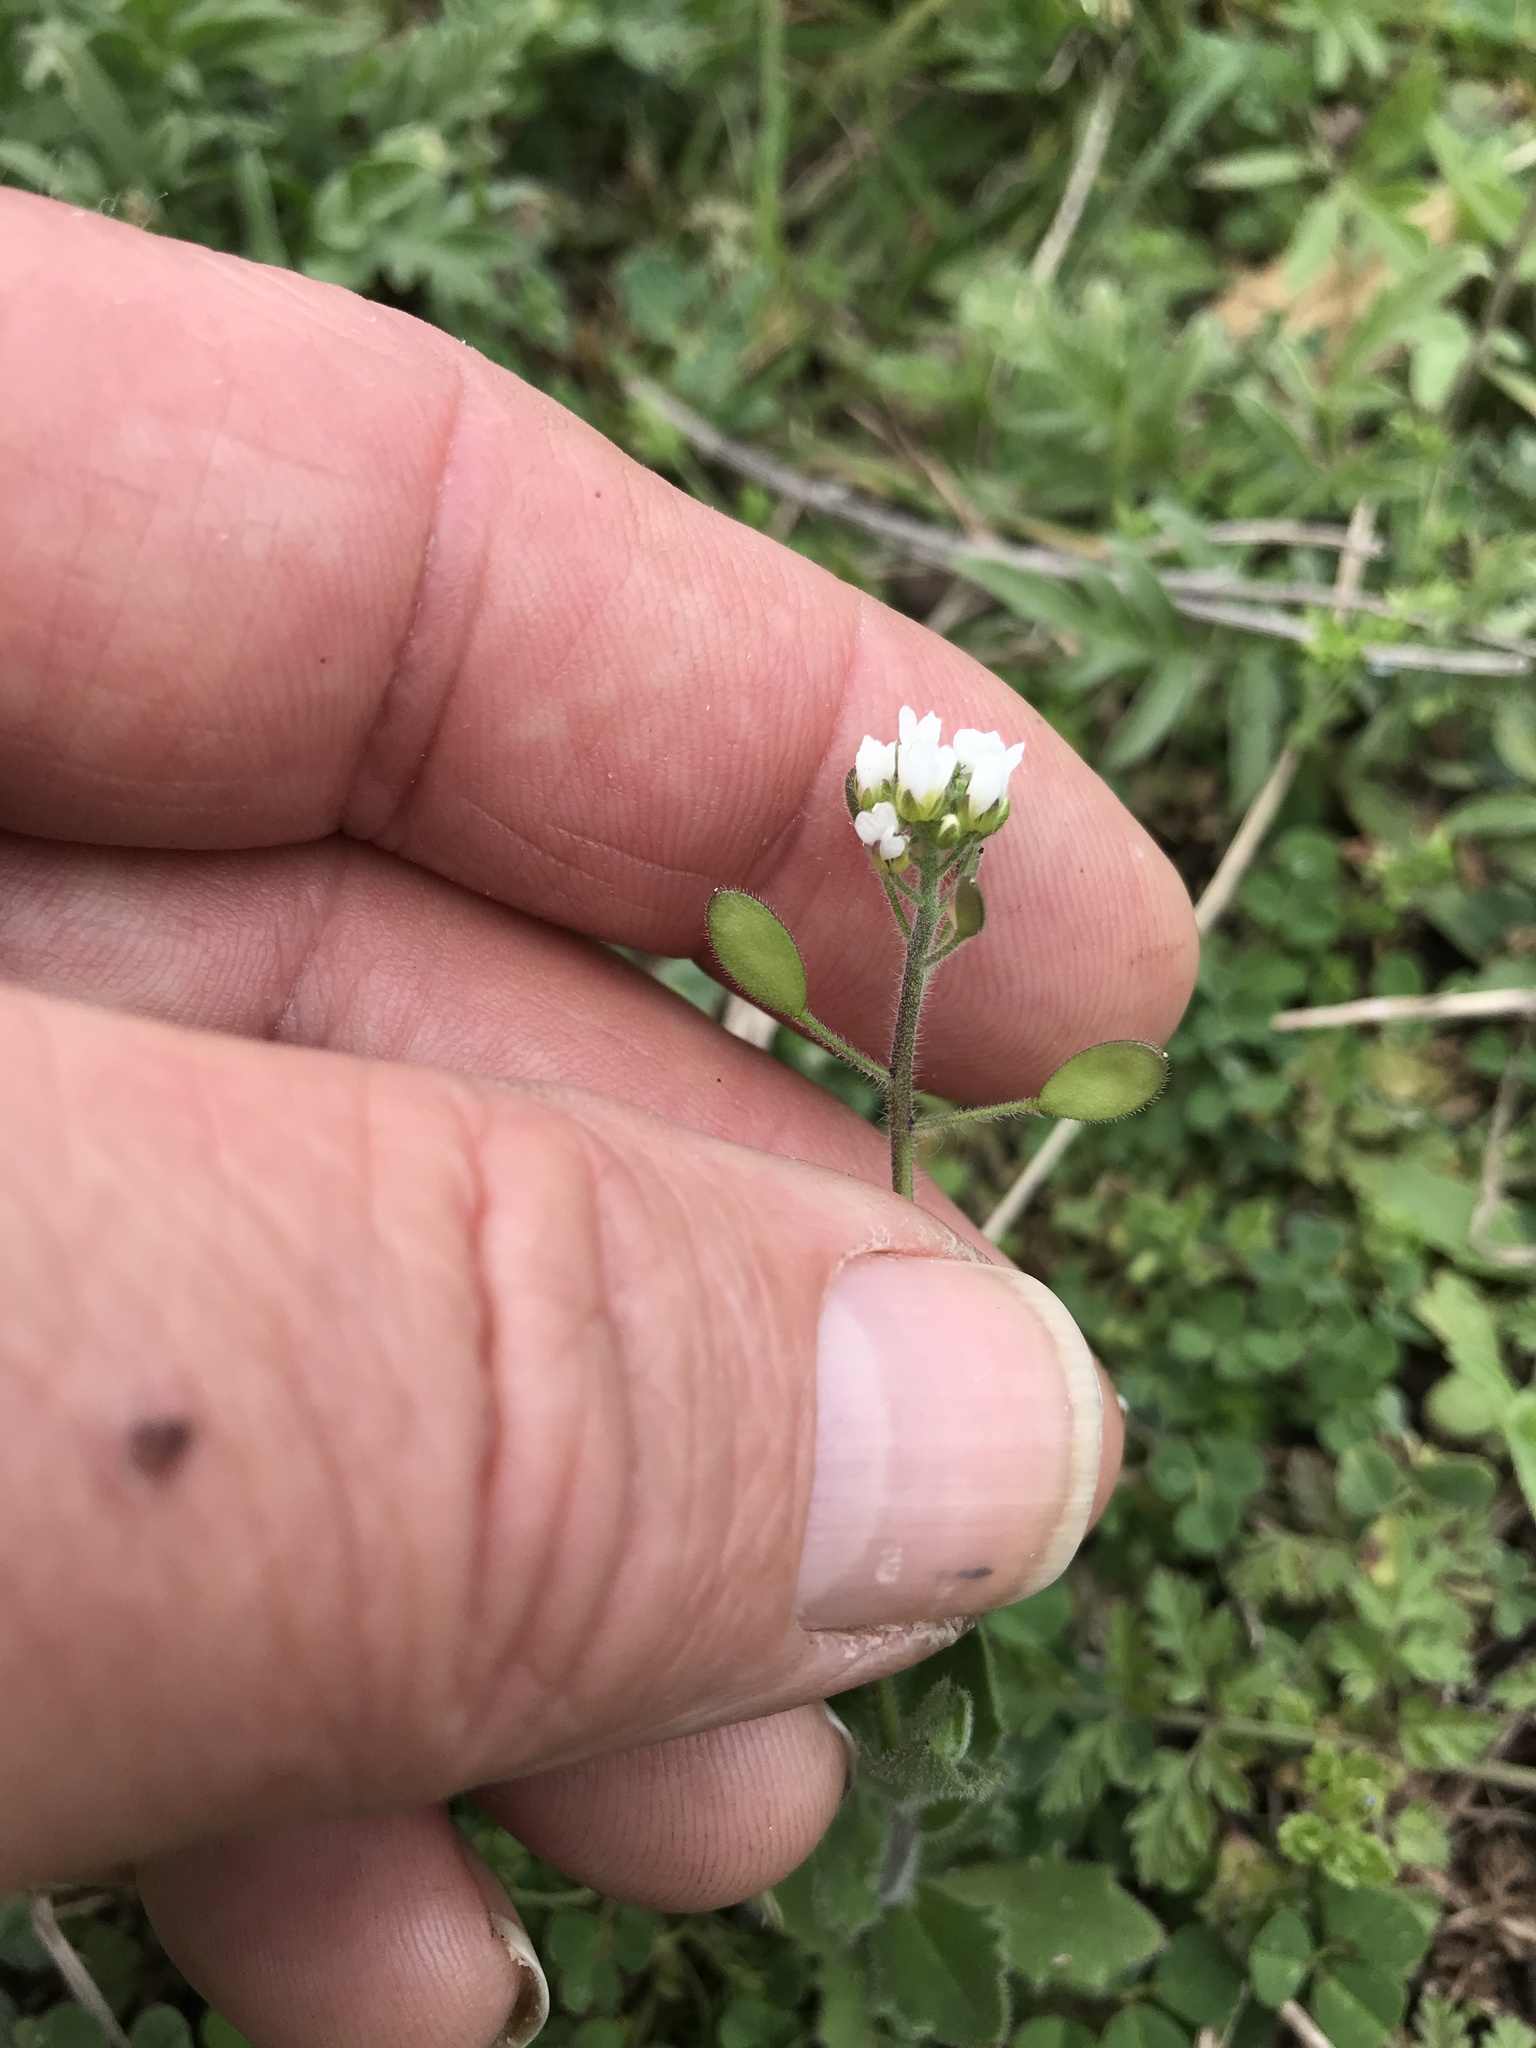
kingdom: Plantae
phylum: Tracheophyta
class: Magnoliopsida
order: Brassicales
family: Brassicaceae
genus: Tomostima
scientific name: Tomostima platycarpa
